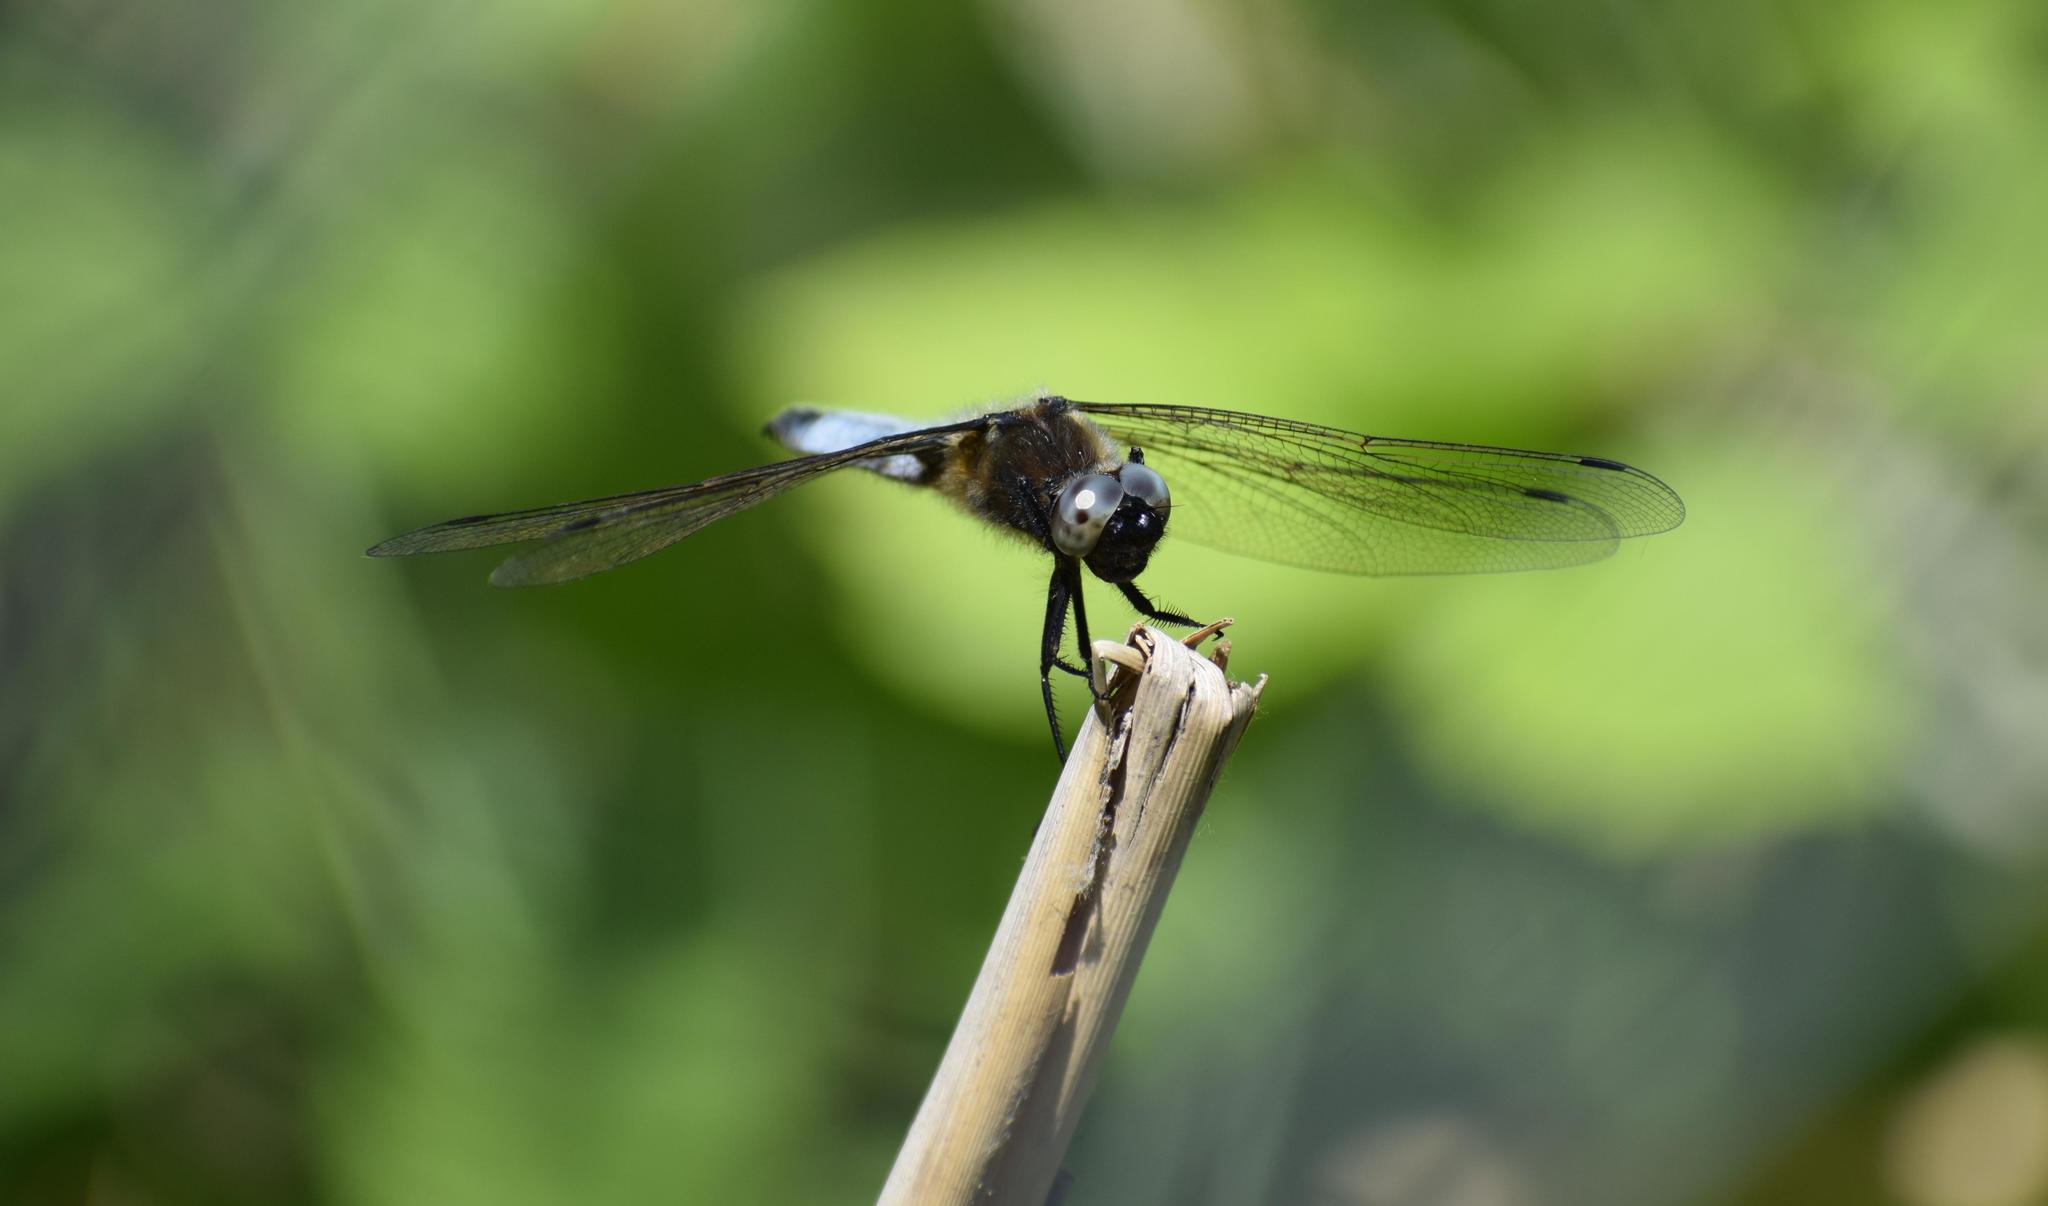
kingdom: Animalia
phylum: Arthropoda
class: Insecta
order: Odonata
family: Libellulidae
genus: Libellula
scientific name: Libellula fulva
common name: Blue chaser
